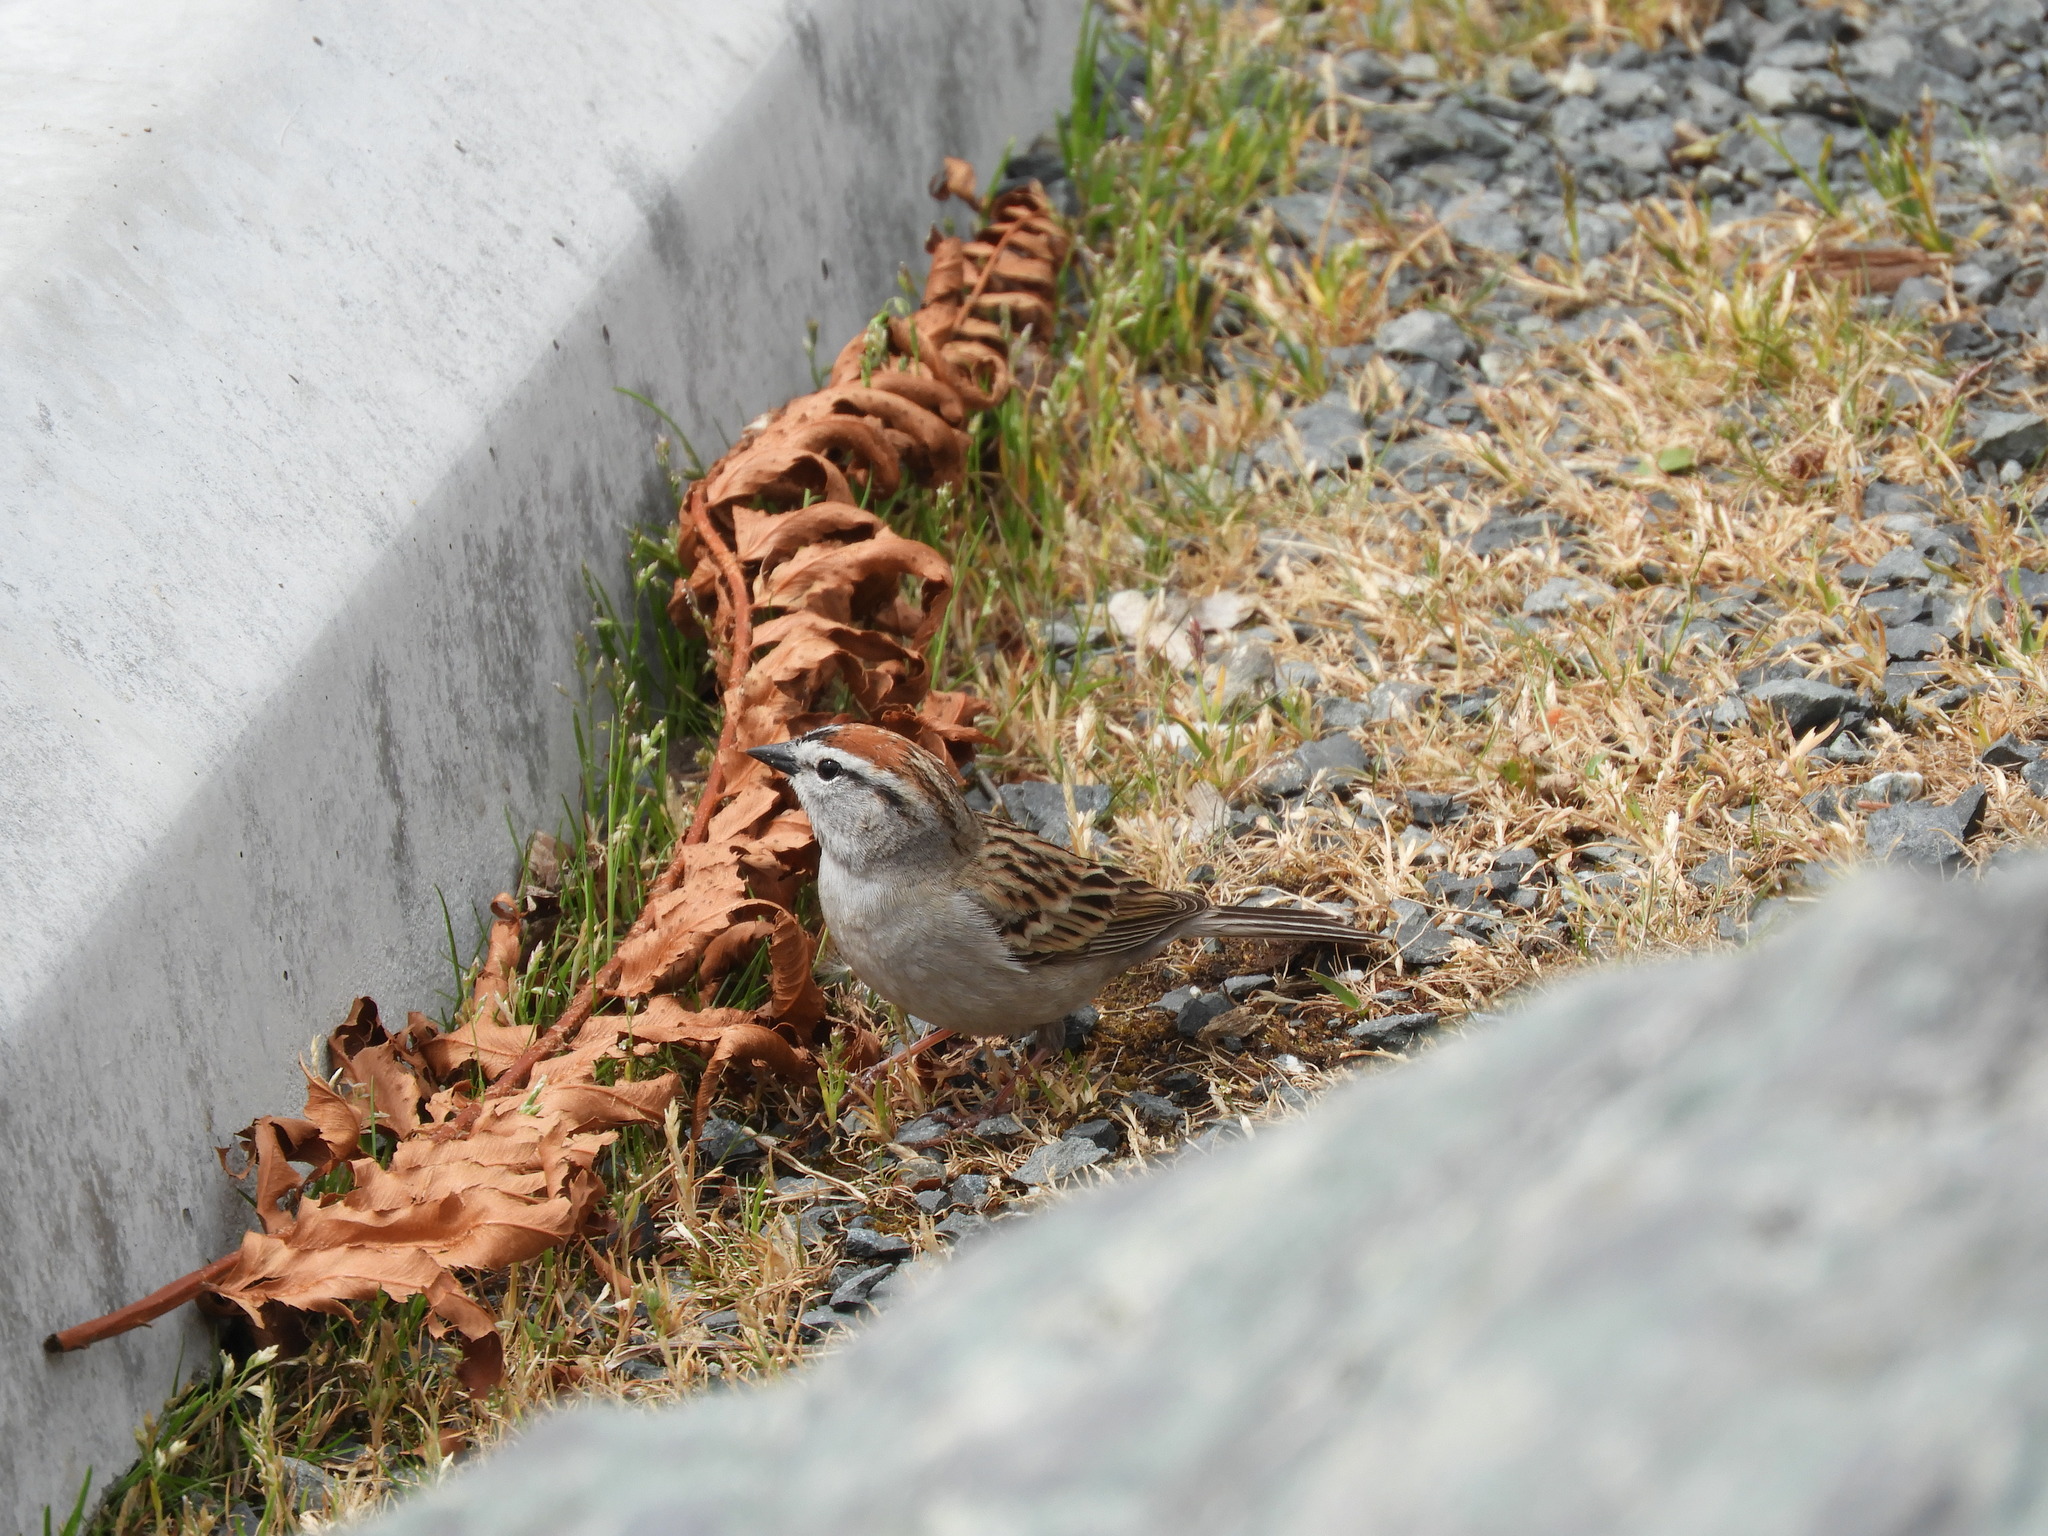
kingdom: Animalia
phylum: Chordata
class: Aves
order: Passeriformes
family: Passerellidae
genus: Spizella
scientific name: Spizella passerina
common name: Chipping sparrow
